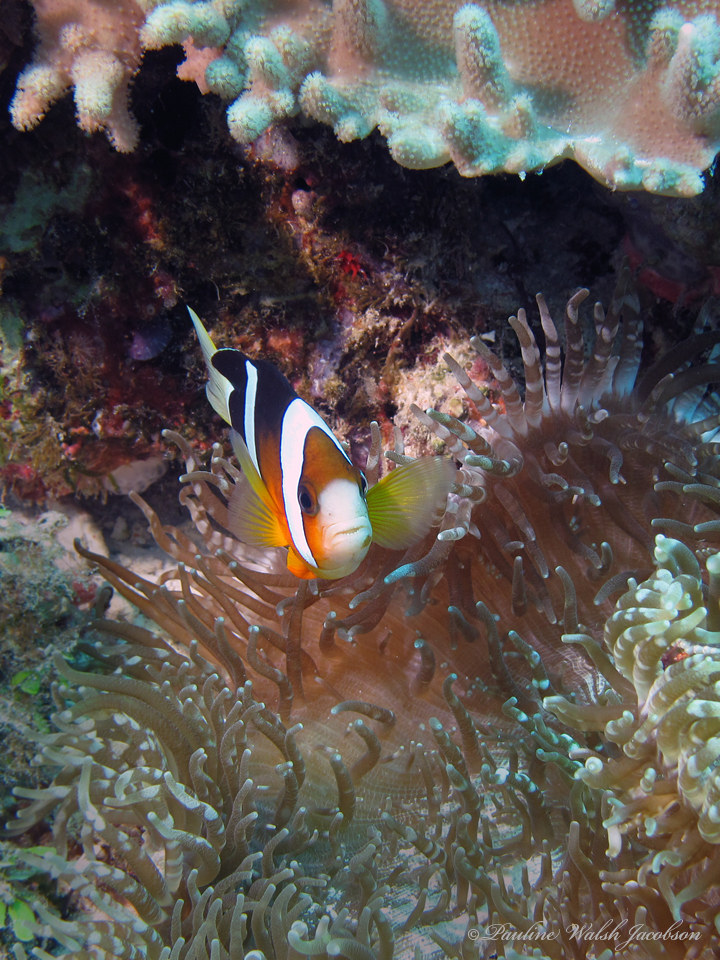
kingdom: Animalia
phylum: Chordata
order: Perciformes
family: Pomacentridae
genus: Amphiprion
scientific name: Amphiprion clarkii
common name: Clark's anemonefish
